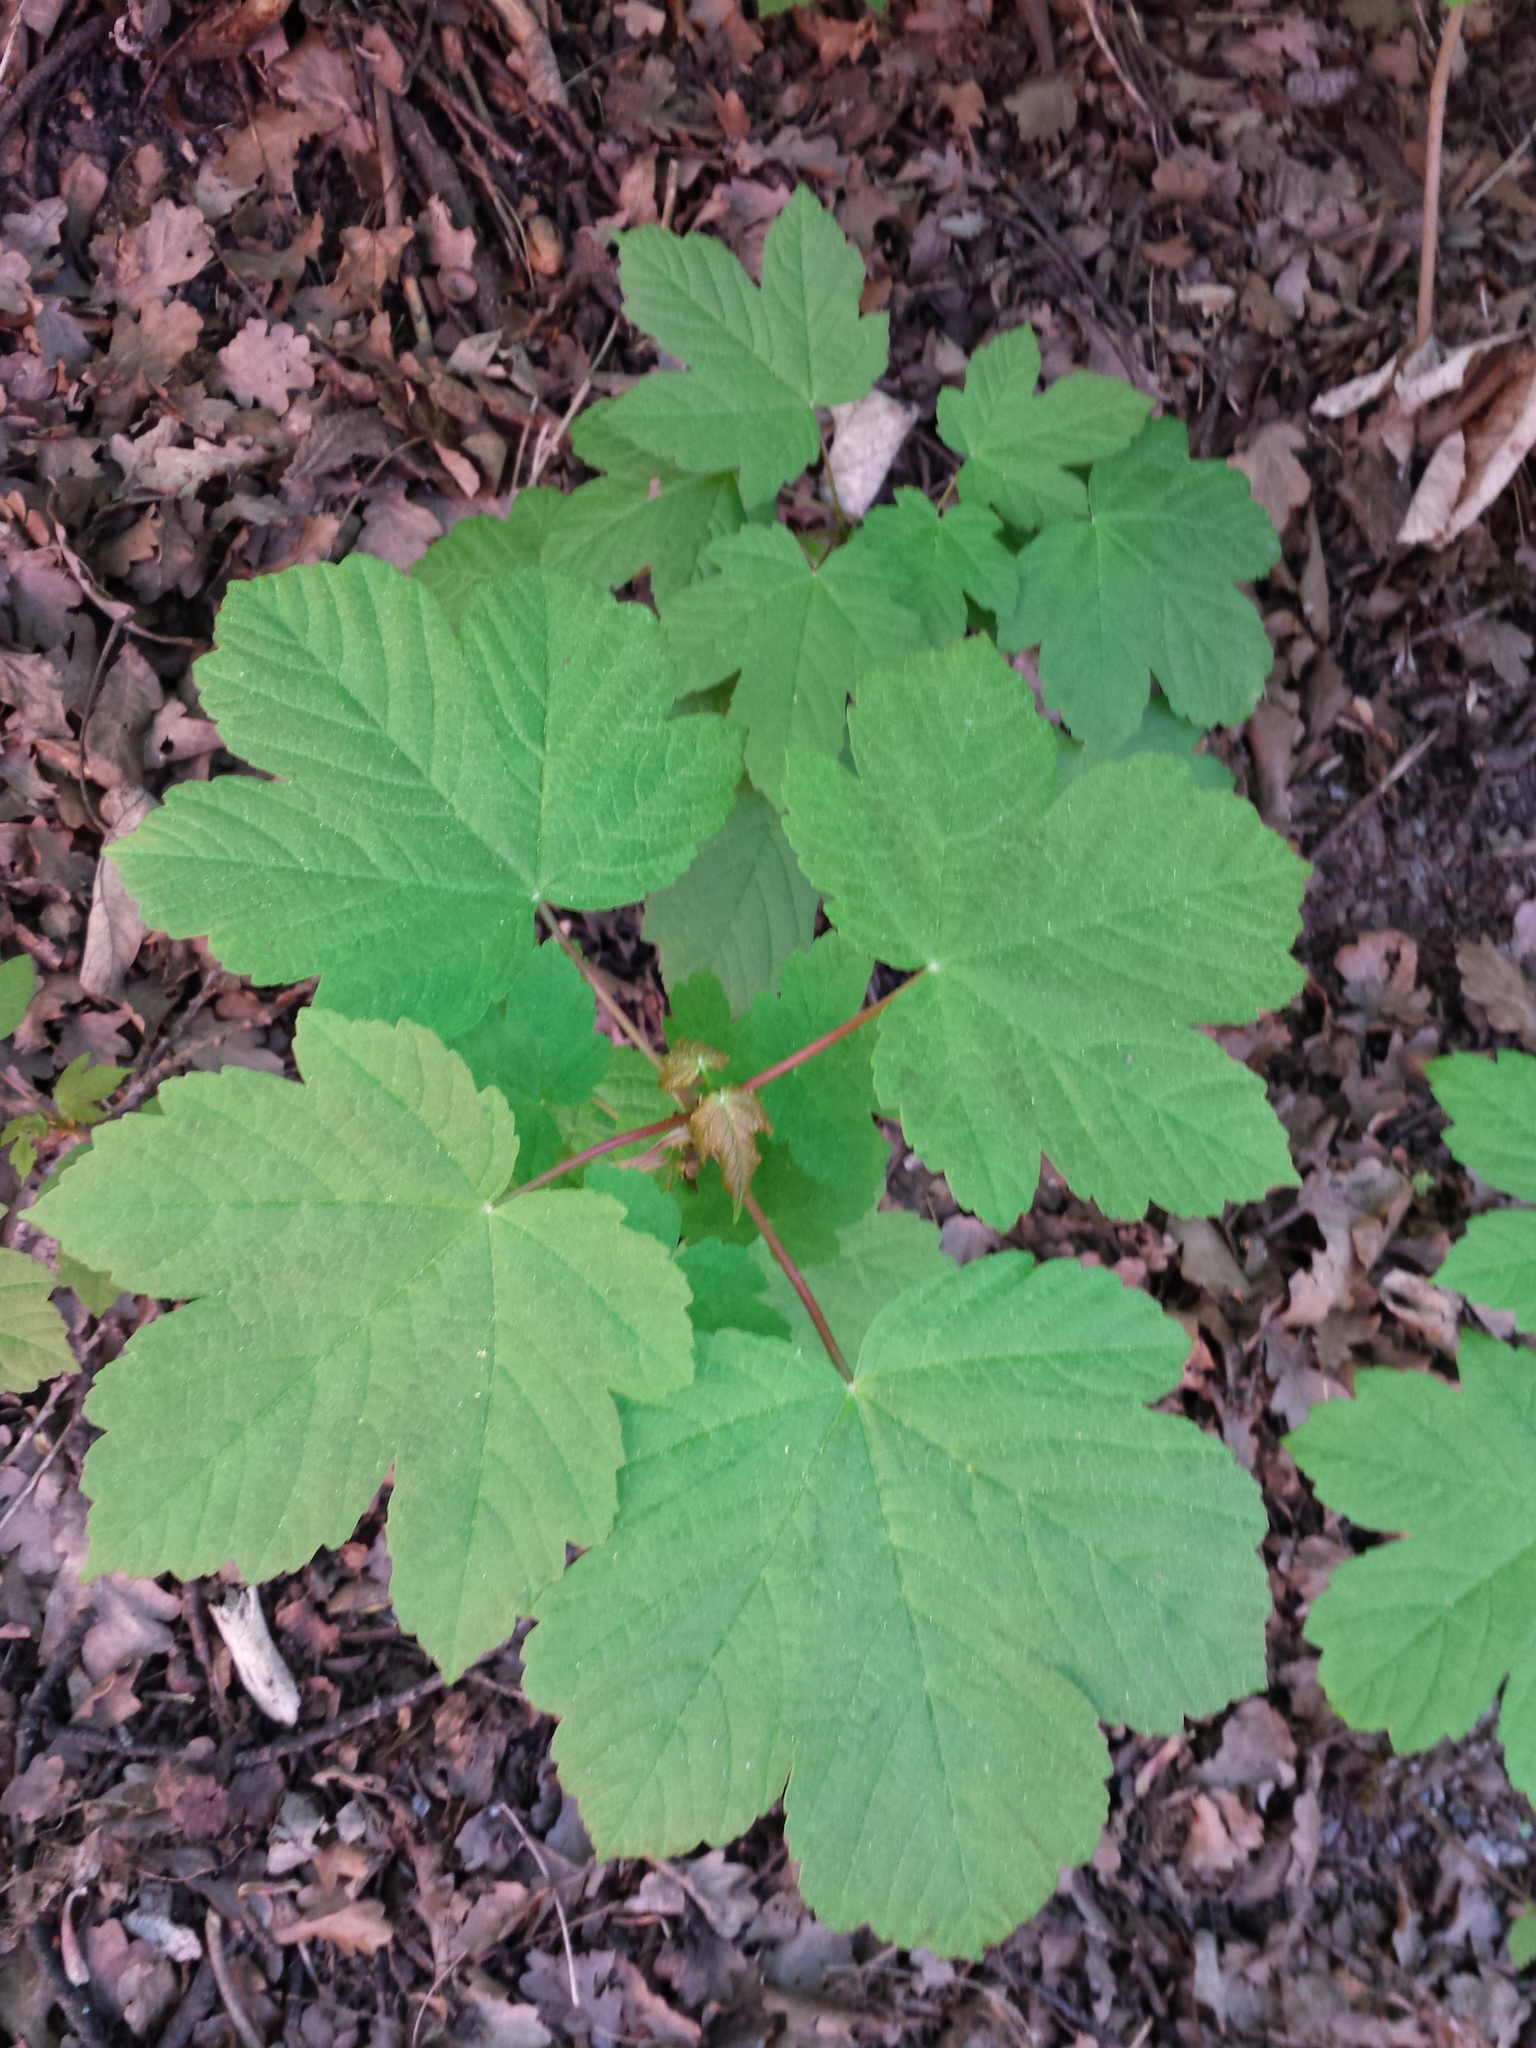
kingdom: Plantae
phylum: Tracheophyta
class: Magnoliopsida
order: Sapindales
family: Sapindaceae
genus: Acer
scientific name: Acer pseudoplatanus
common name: Sycamore
